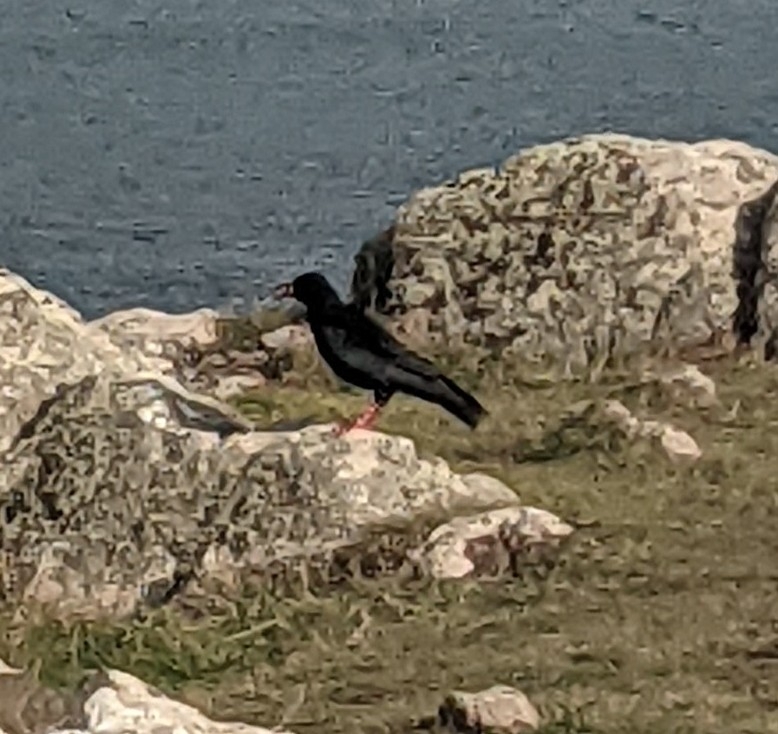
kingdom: Animalia
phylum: Chordata
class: Aves
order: Passeriformes
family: Corvidae
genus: Pyrrhocorax
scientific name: Pyrrhocorax pyrrhocorax
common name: Red-billed chough
